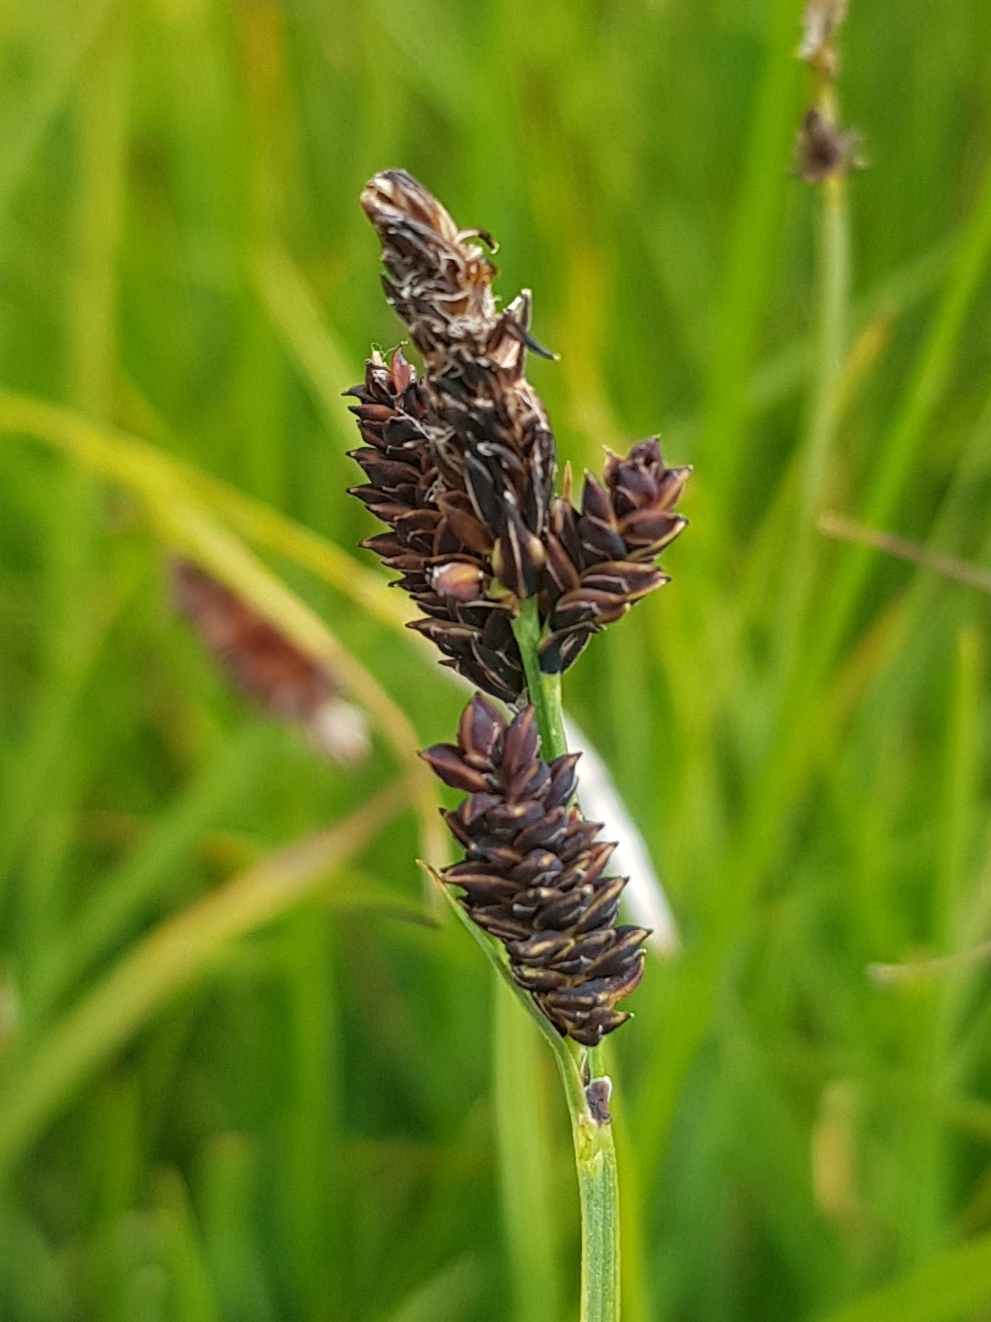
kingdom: Plantae
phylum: Tracheophyta
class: Liliopsida
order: Poales
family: Cyperaceae
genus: Carex
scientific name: Carex bigelowii
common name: Stiff sedge
